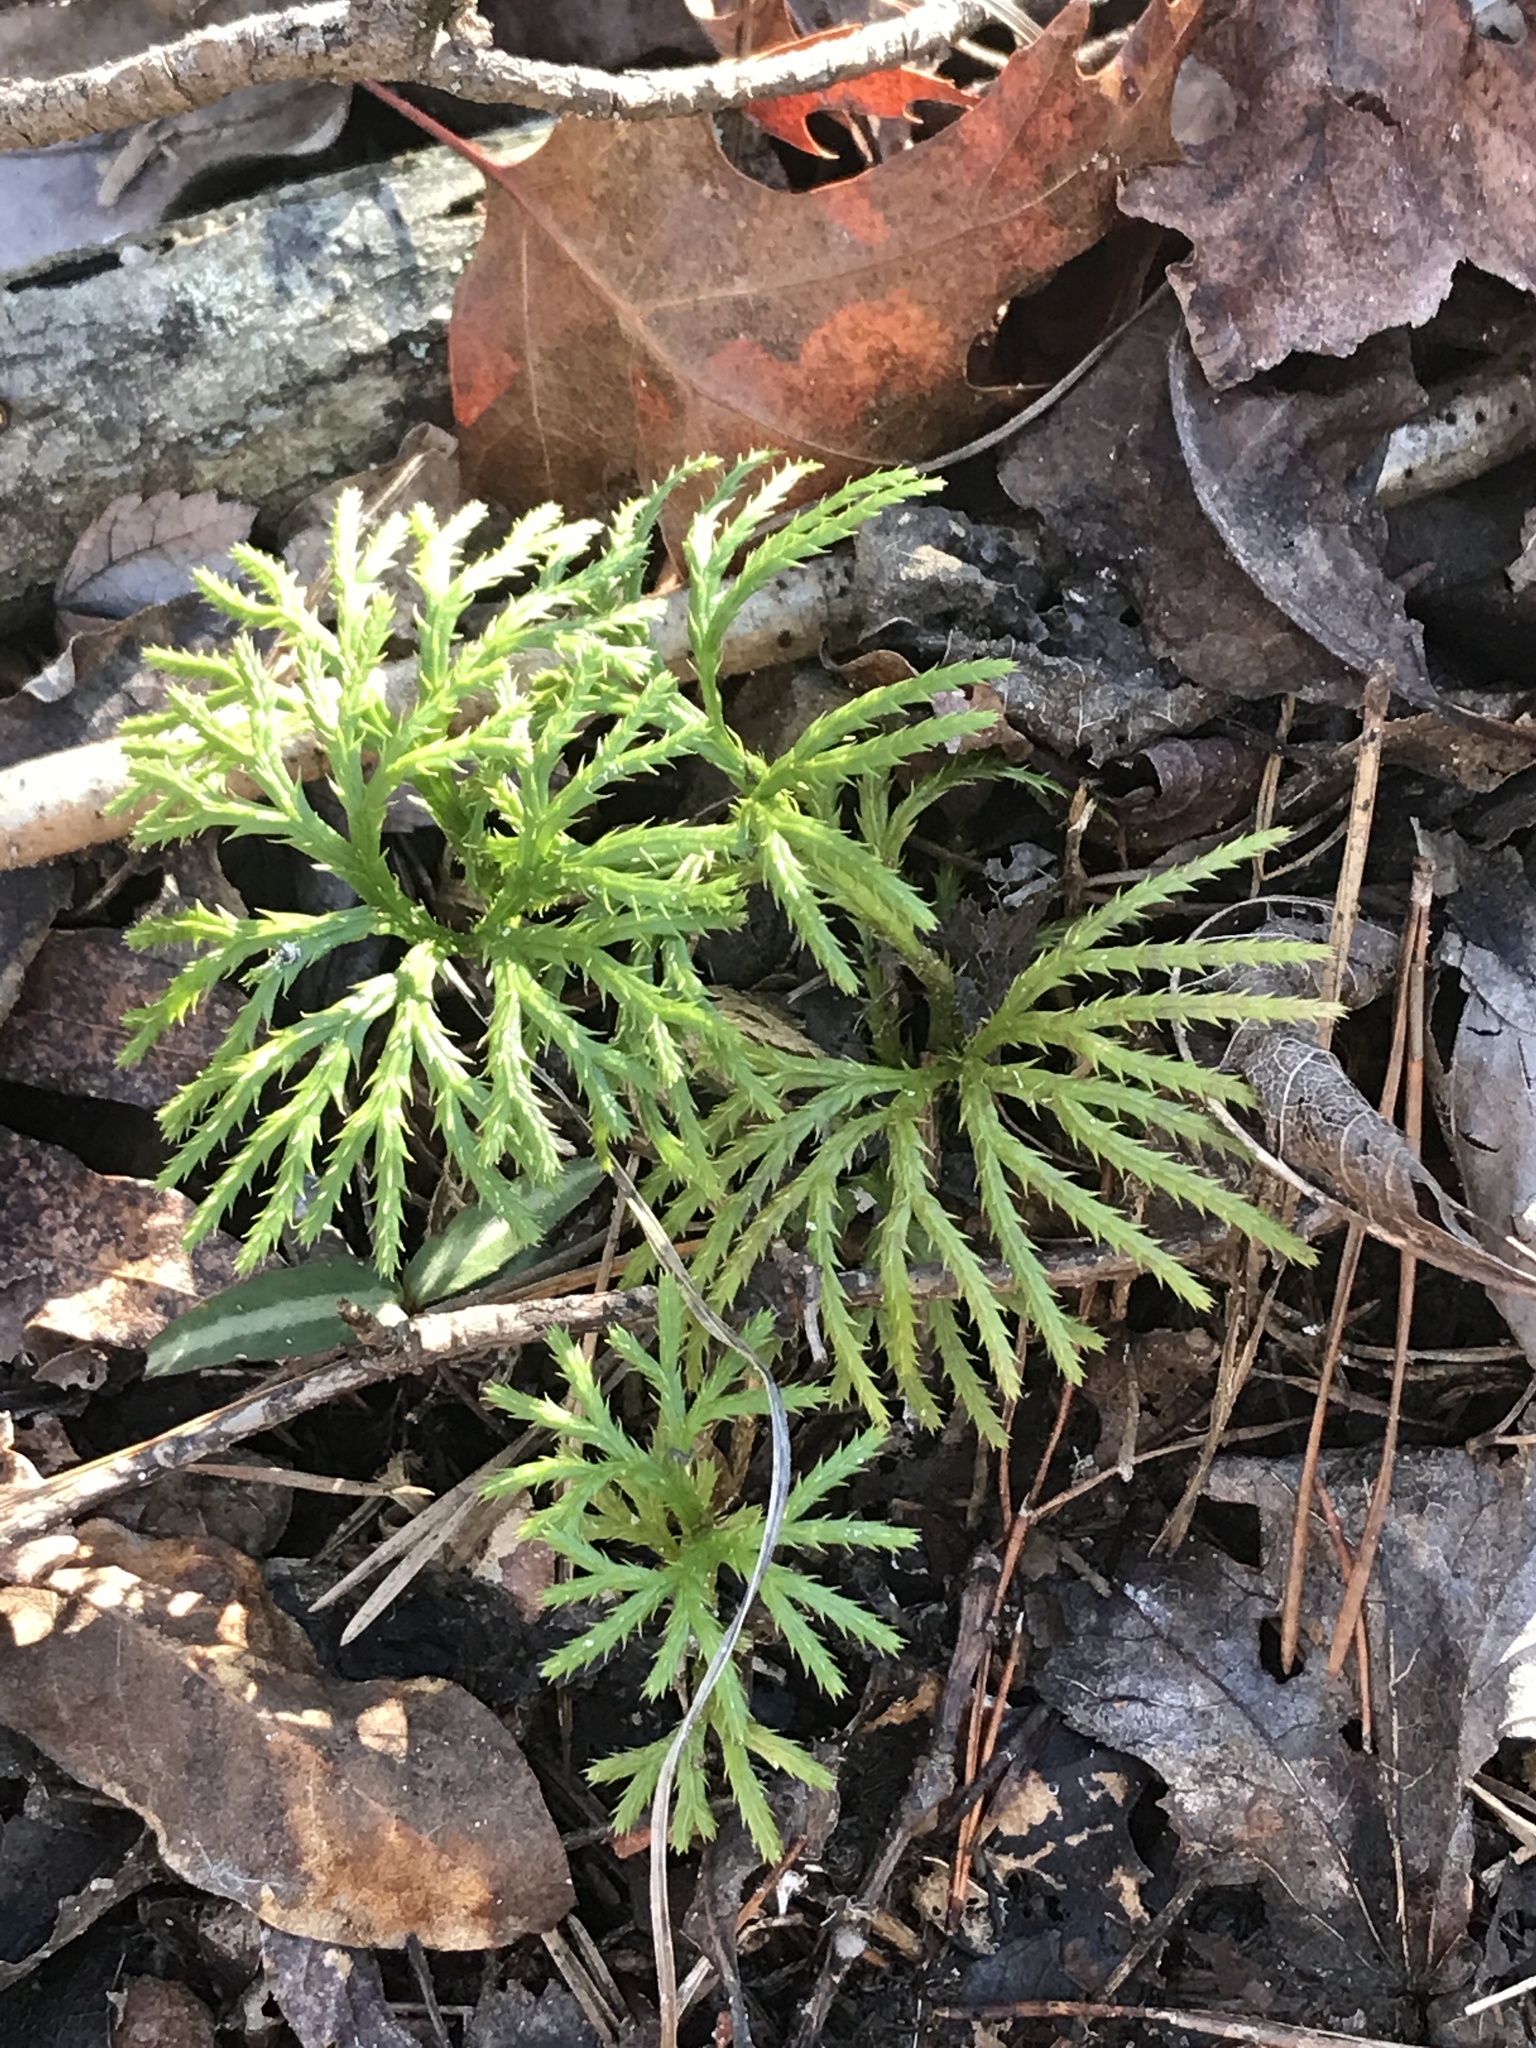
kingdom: Plantae
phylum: Tracheophyta
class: Lycopodiopsida
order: Lycopodiales
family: Lycopodiaceae
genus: Diphasiastrum
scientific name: Diphasiastrum digitatum
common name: Southern running-pine
